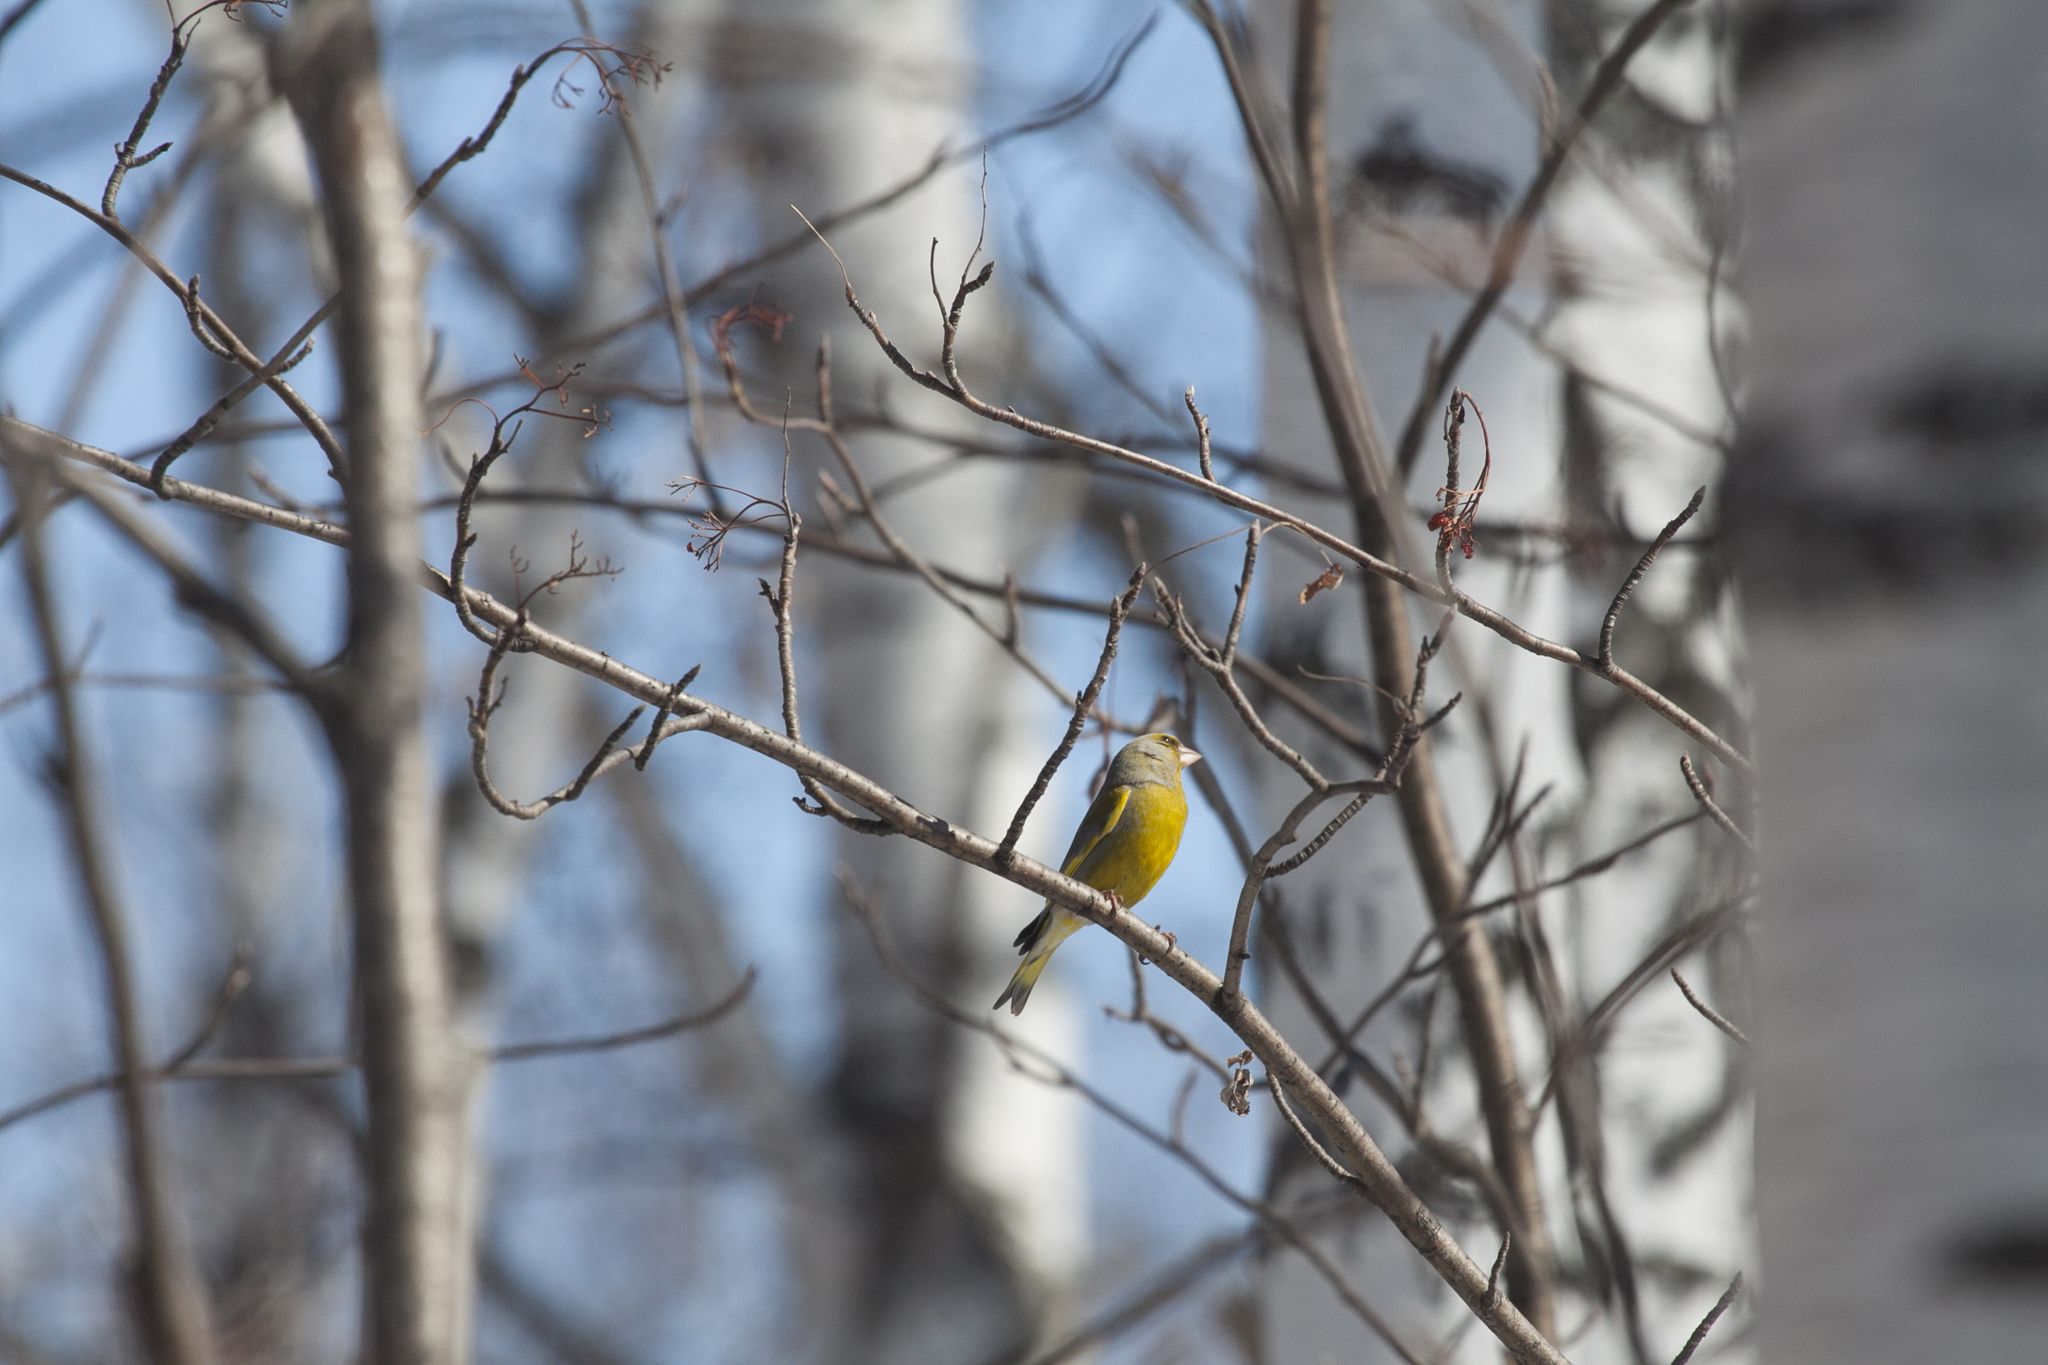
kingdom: Plantae
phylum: Tracheophyta
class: Liliopsida
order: Poales
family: Poaceae
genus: Chloris
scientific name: Chloris chloris
